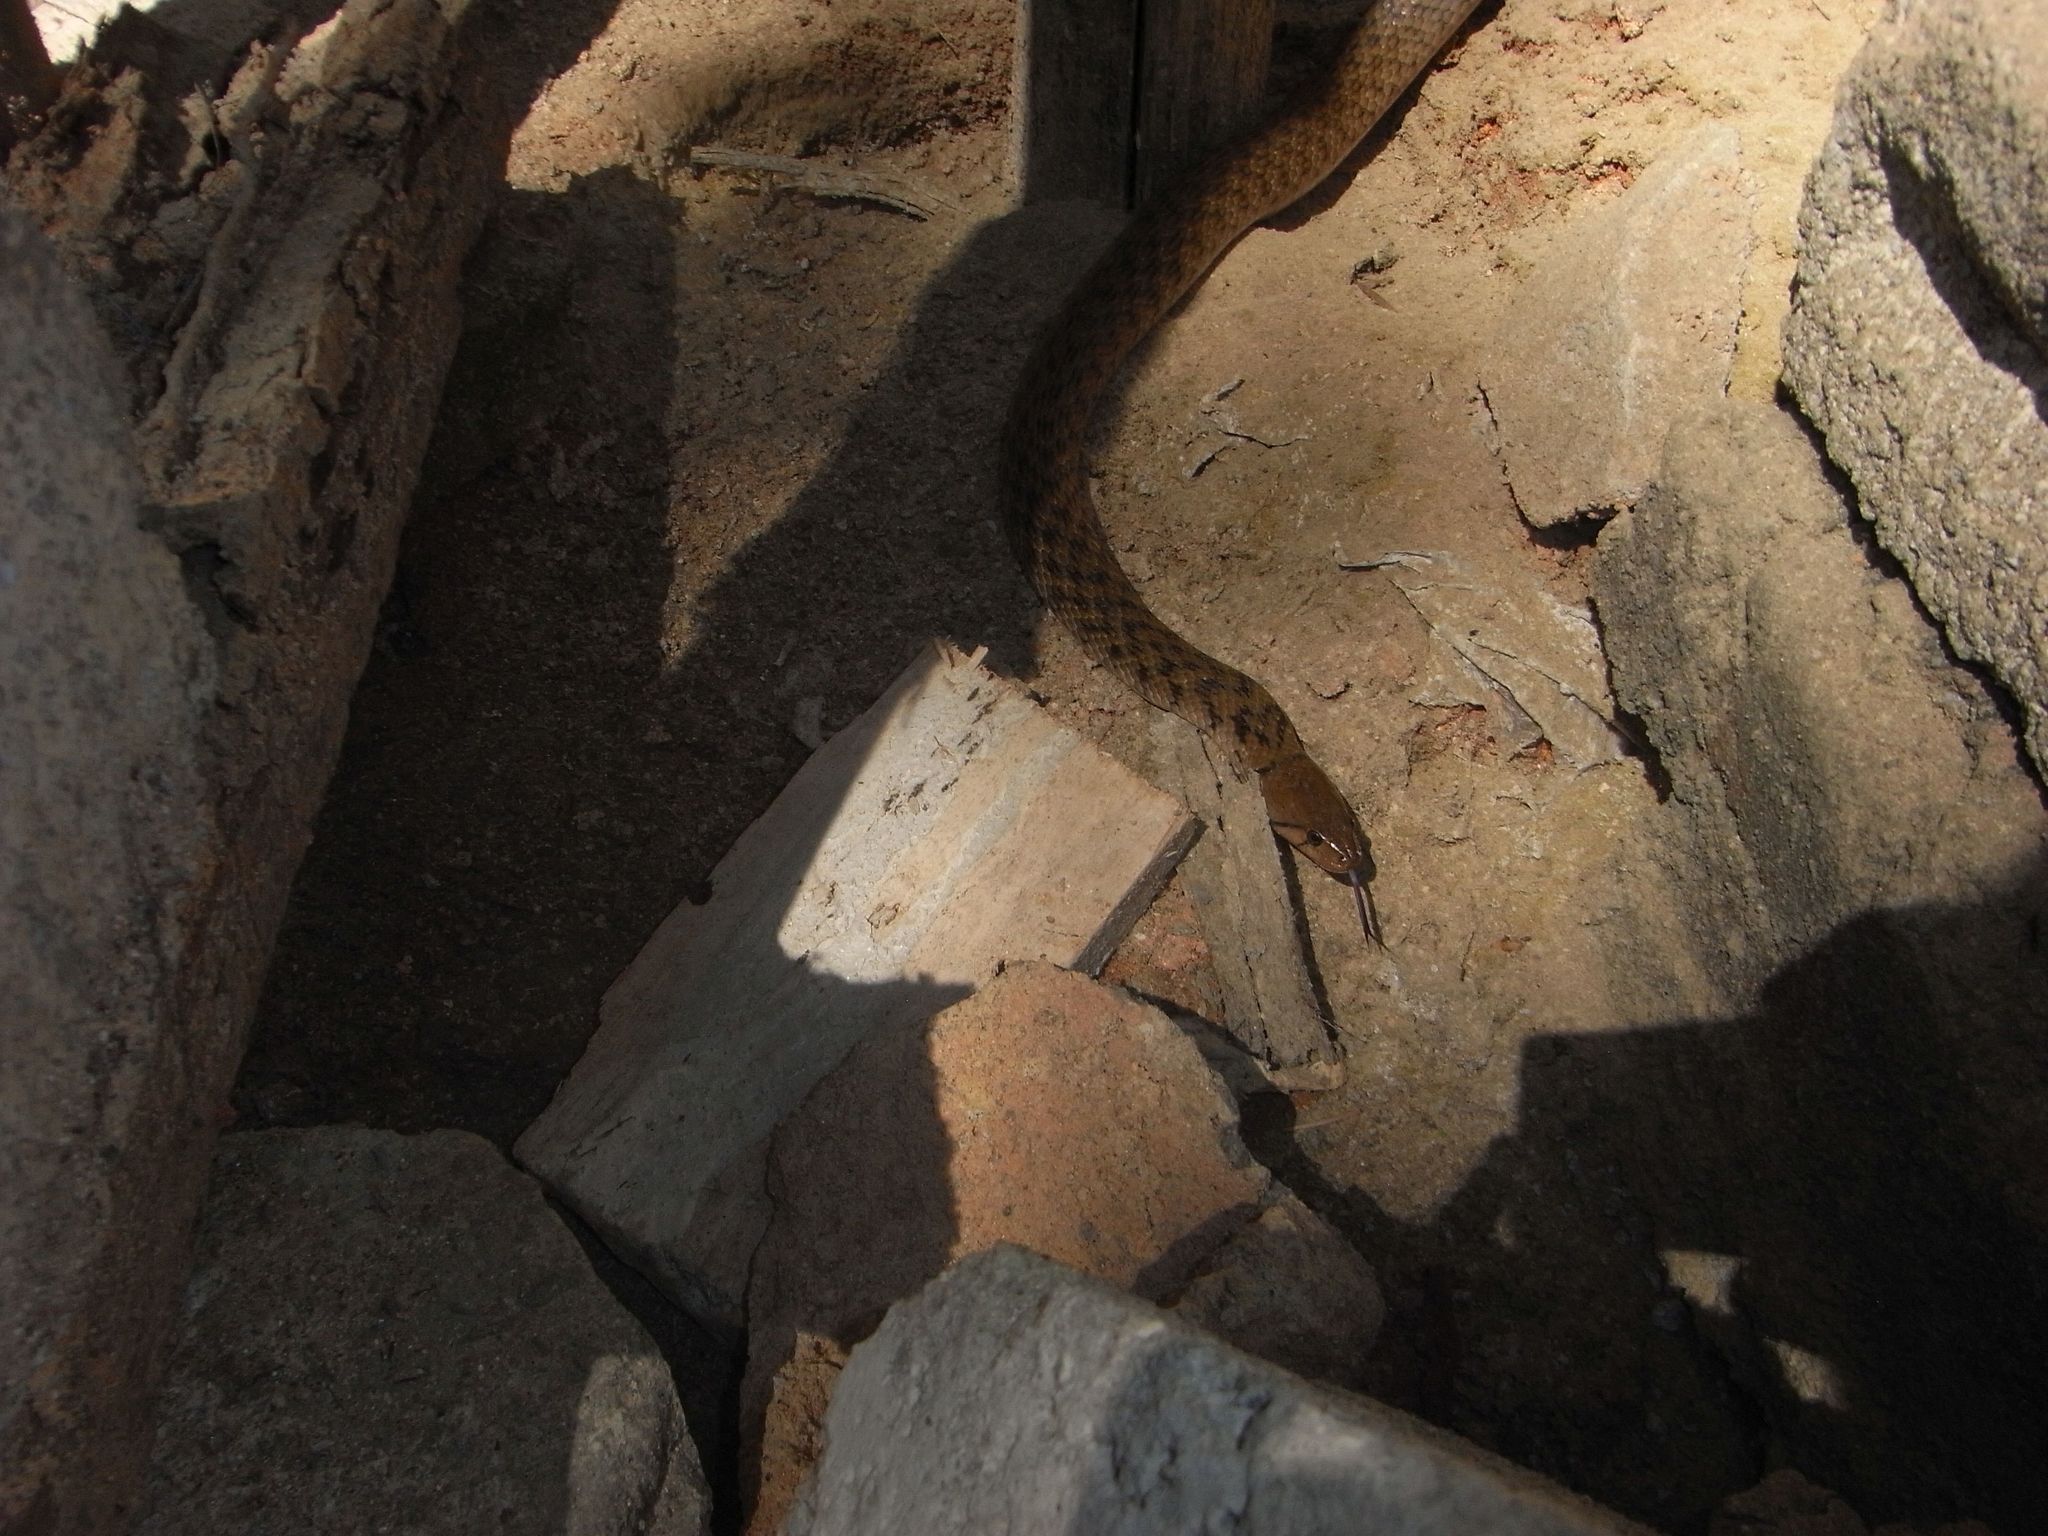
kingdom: Animalia
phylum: Chordata
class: Squamata
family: Colubridae
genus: Fowlea
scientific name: Fowlea piscator
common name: Asiatic water snake
